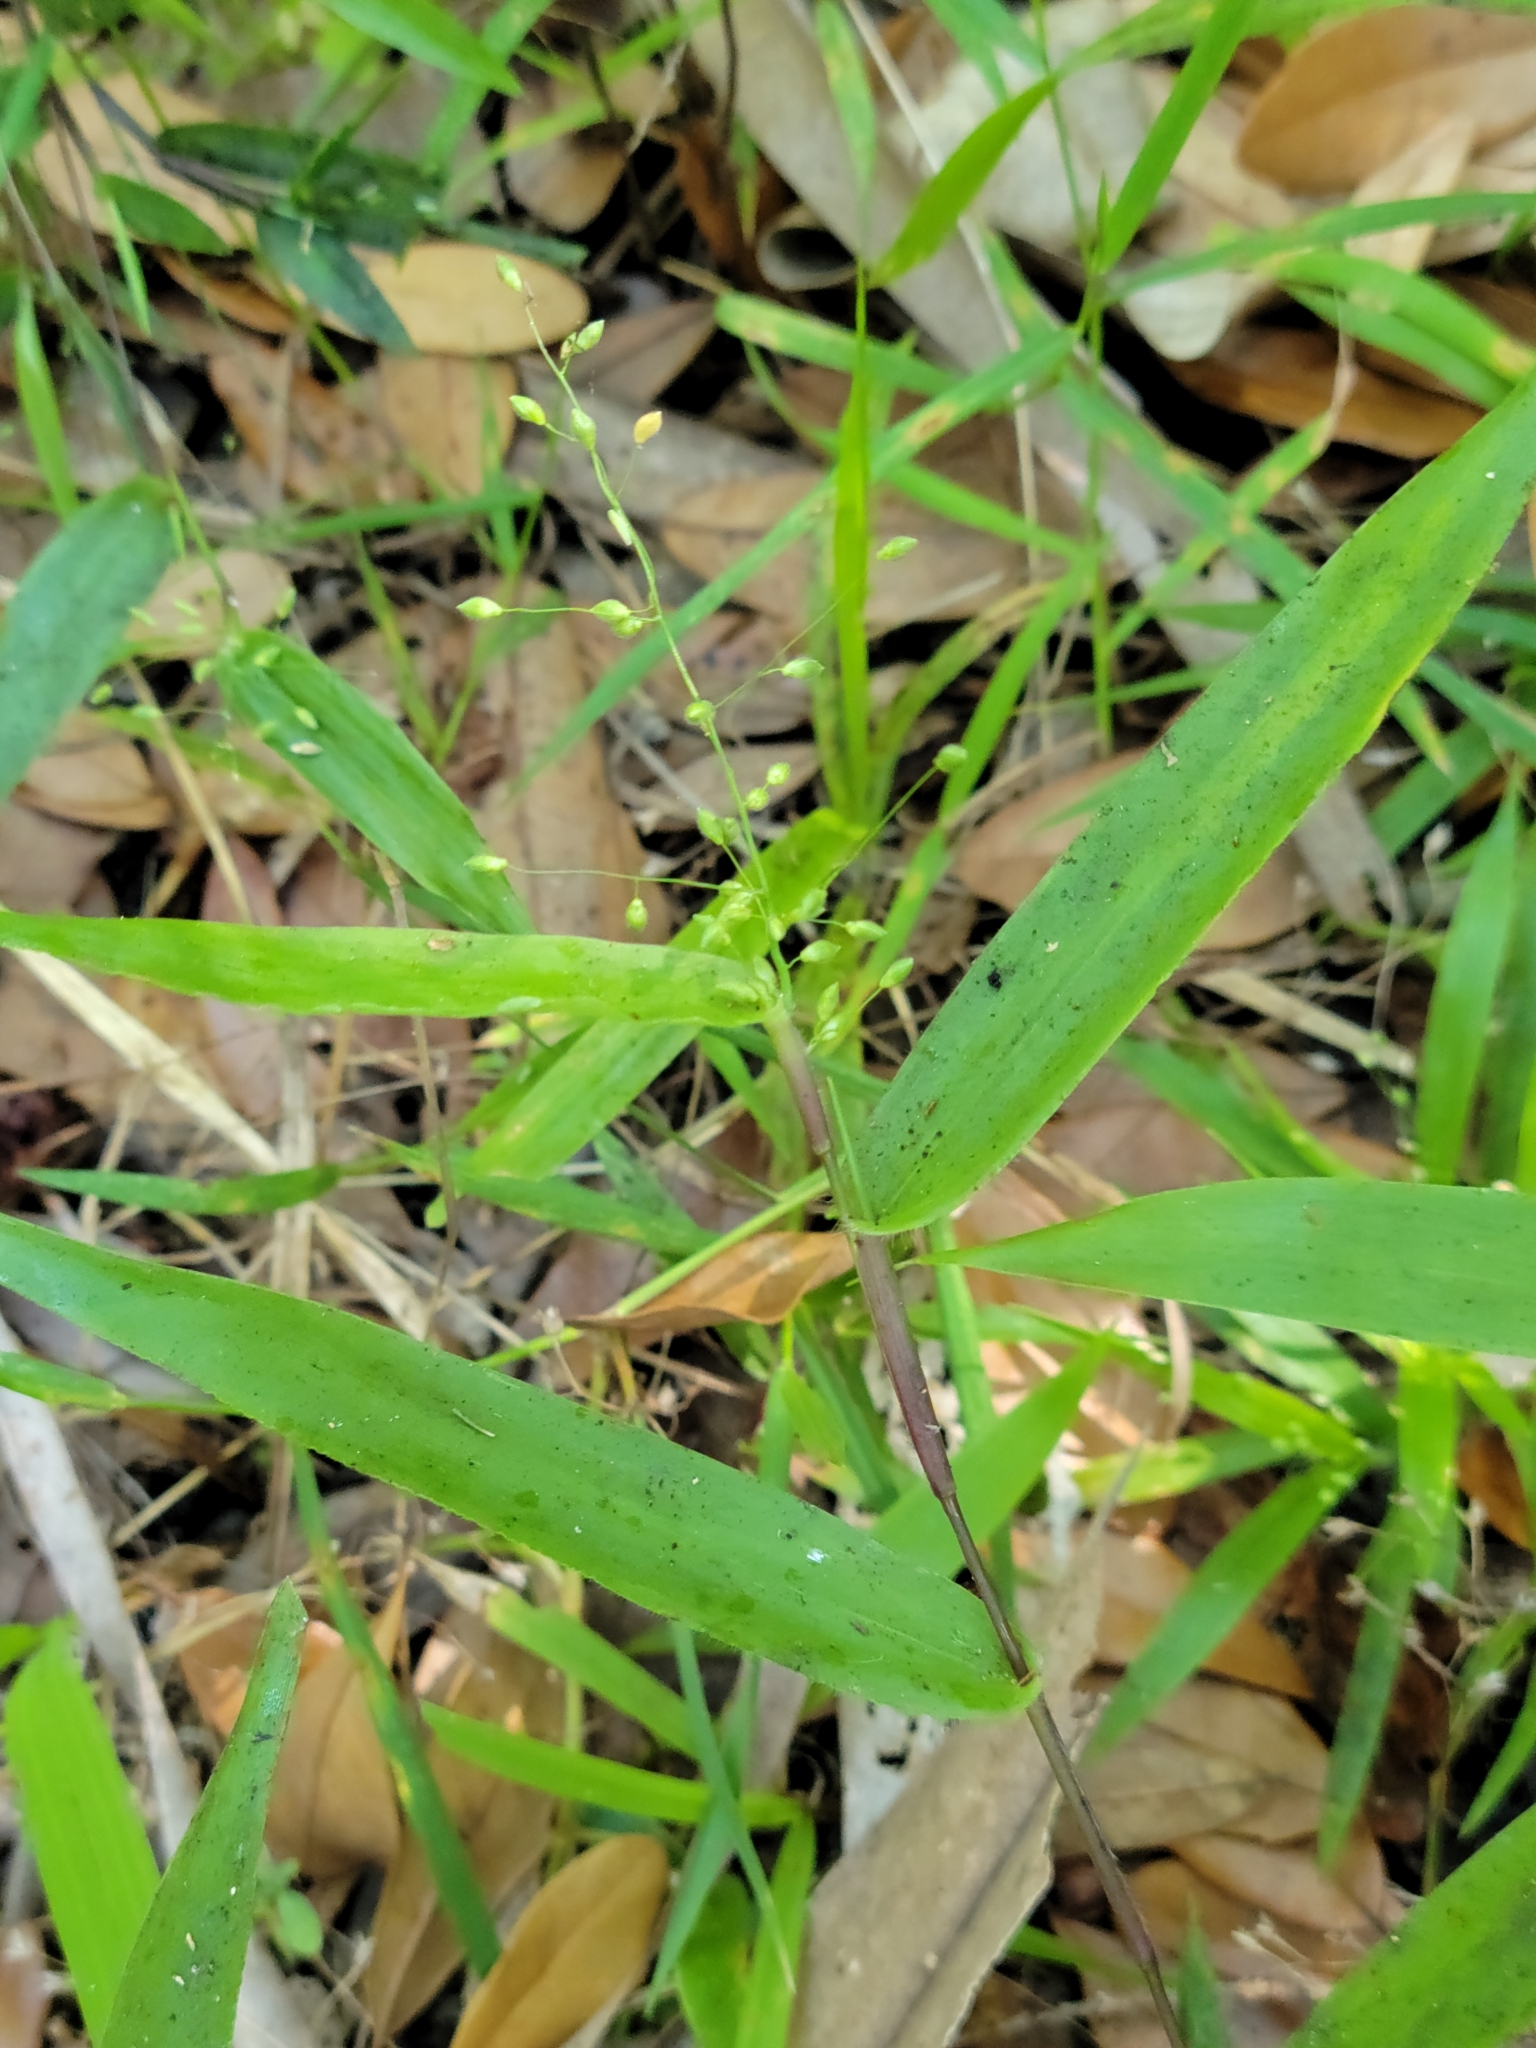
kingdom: Plantae
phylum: Tracheophyta
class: Liliopsida
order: Poales
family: Poaceae
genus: Dichanthelium
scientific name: Dichanthelium commutatum
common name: Variable witchgrass
